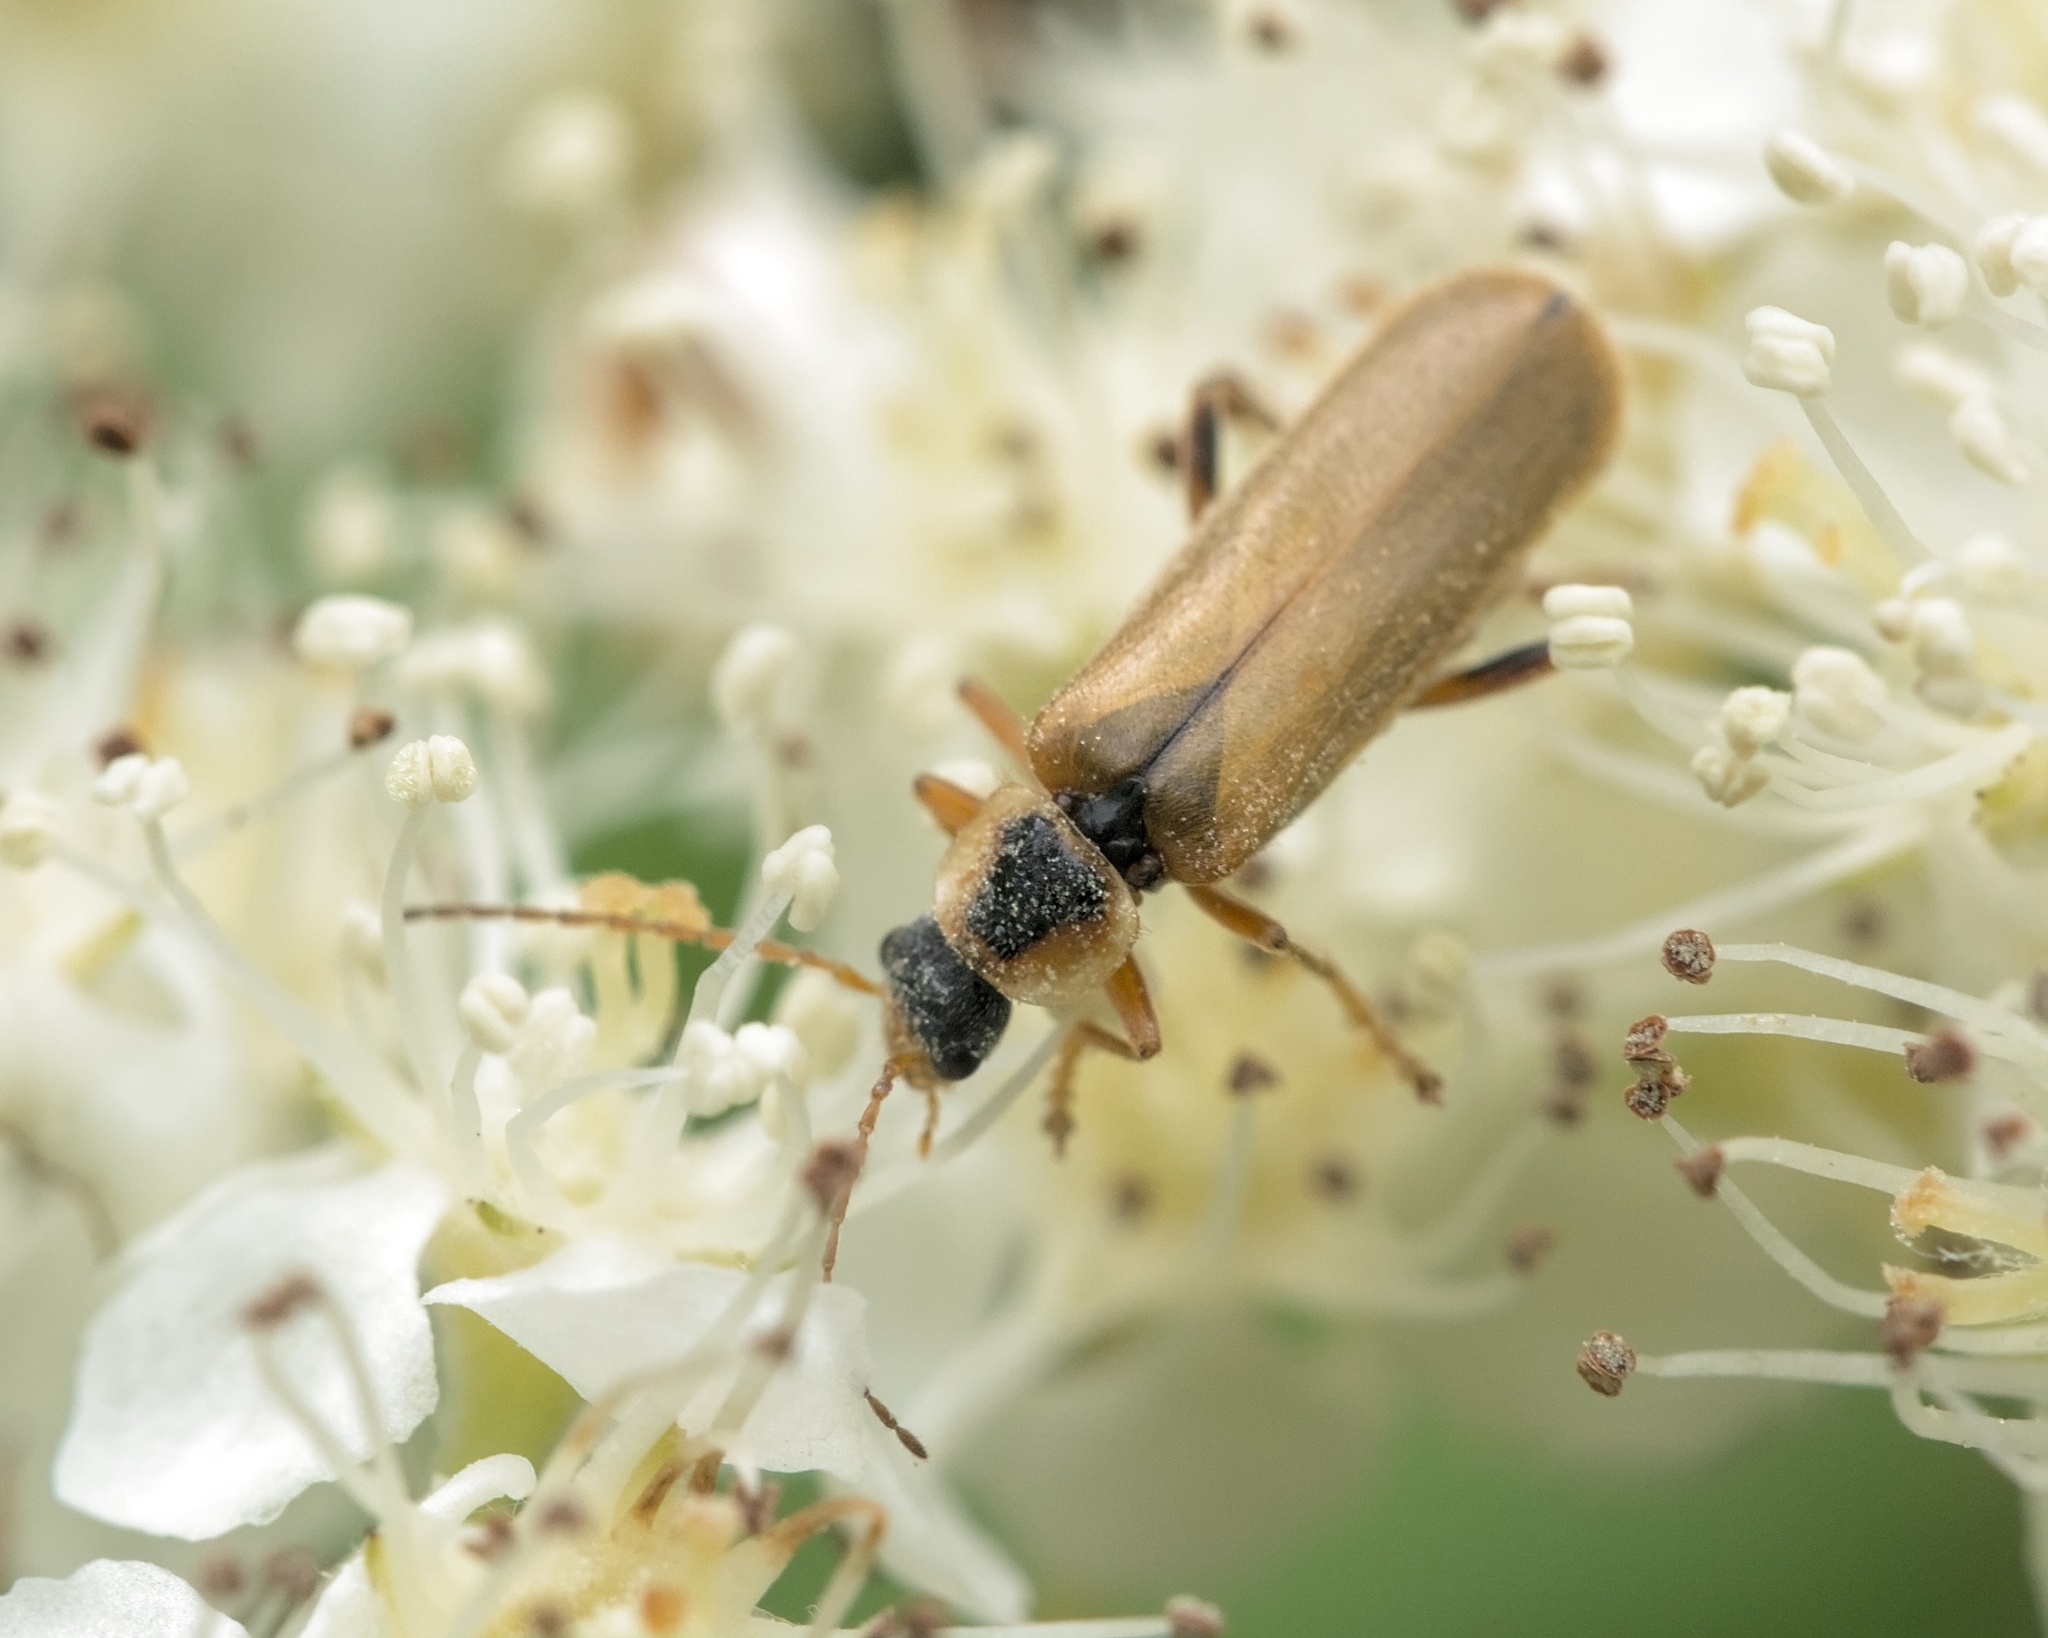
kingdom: Animalia
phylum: Arthropoda
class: Insecta
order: Coleoptera
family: Cantharidae
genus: Cantharis
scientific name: Cantharis decipiens
